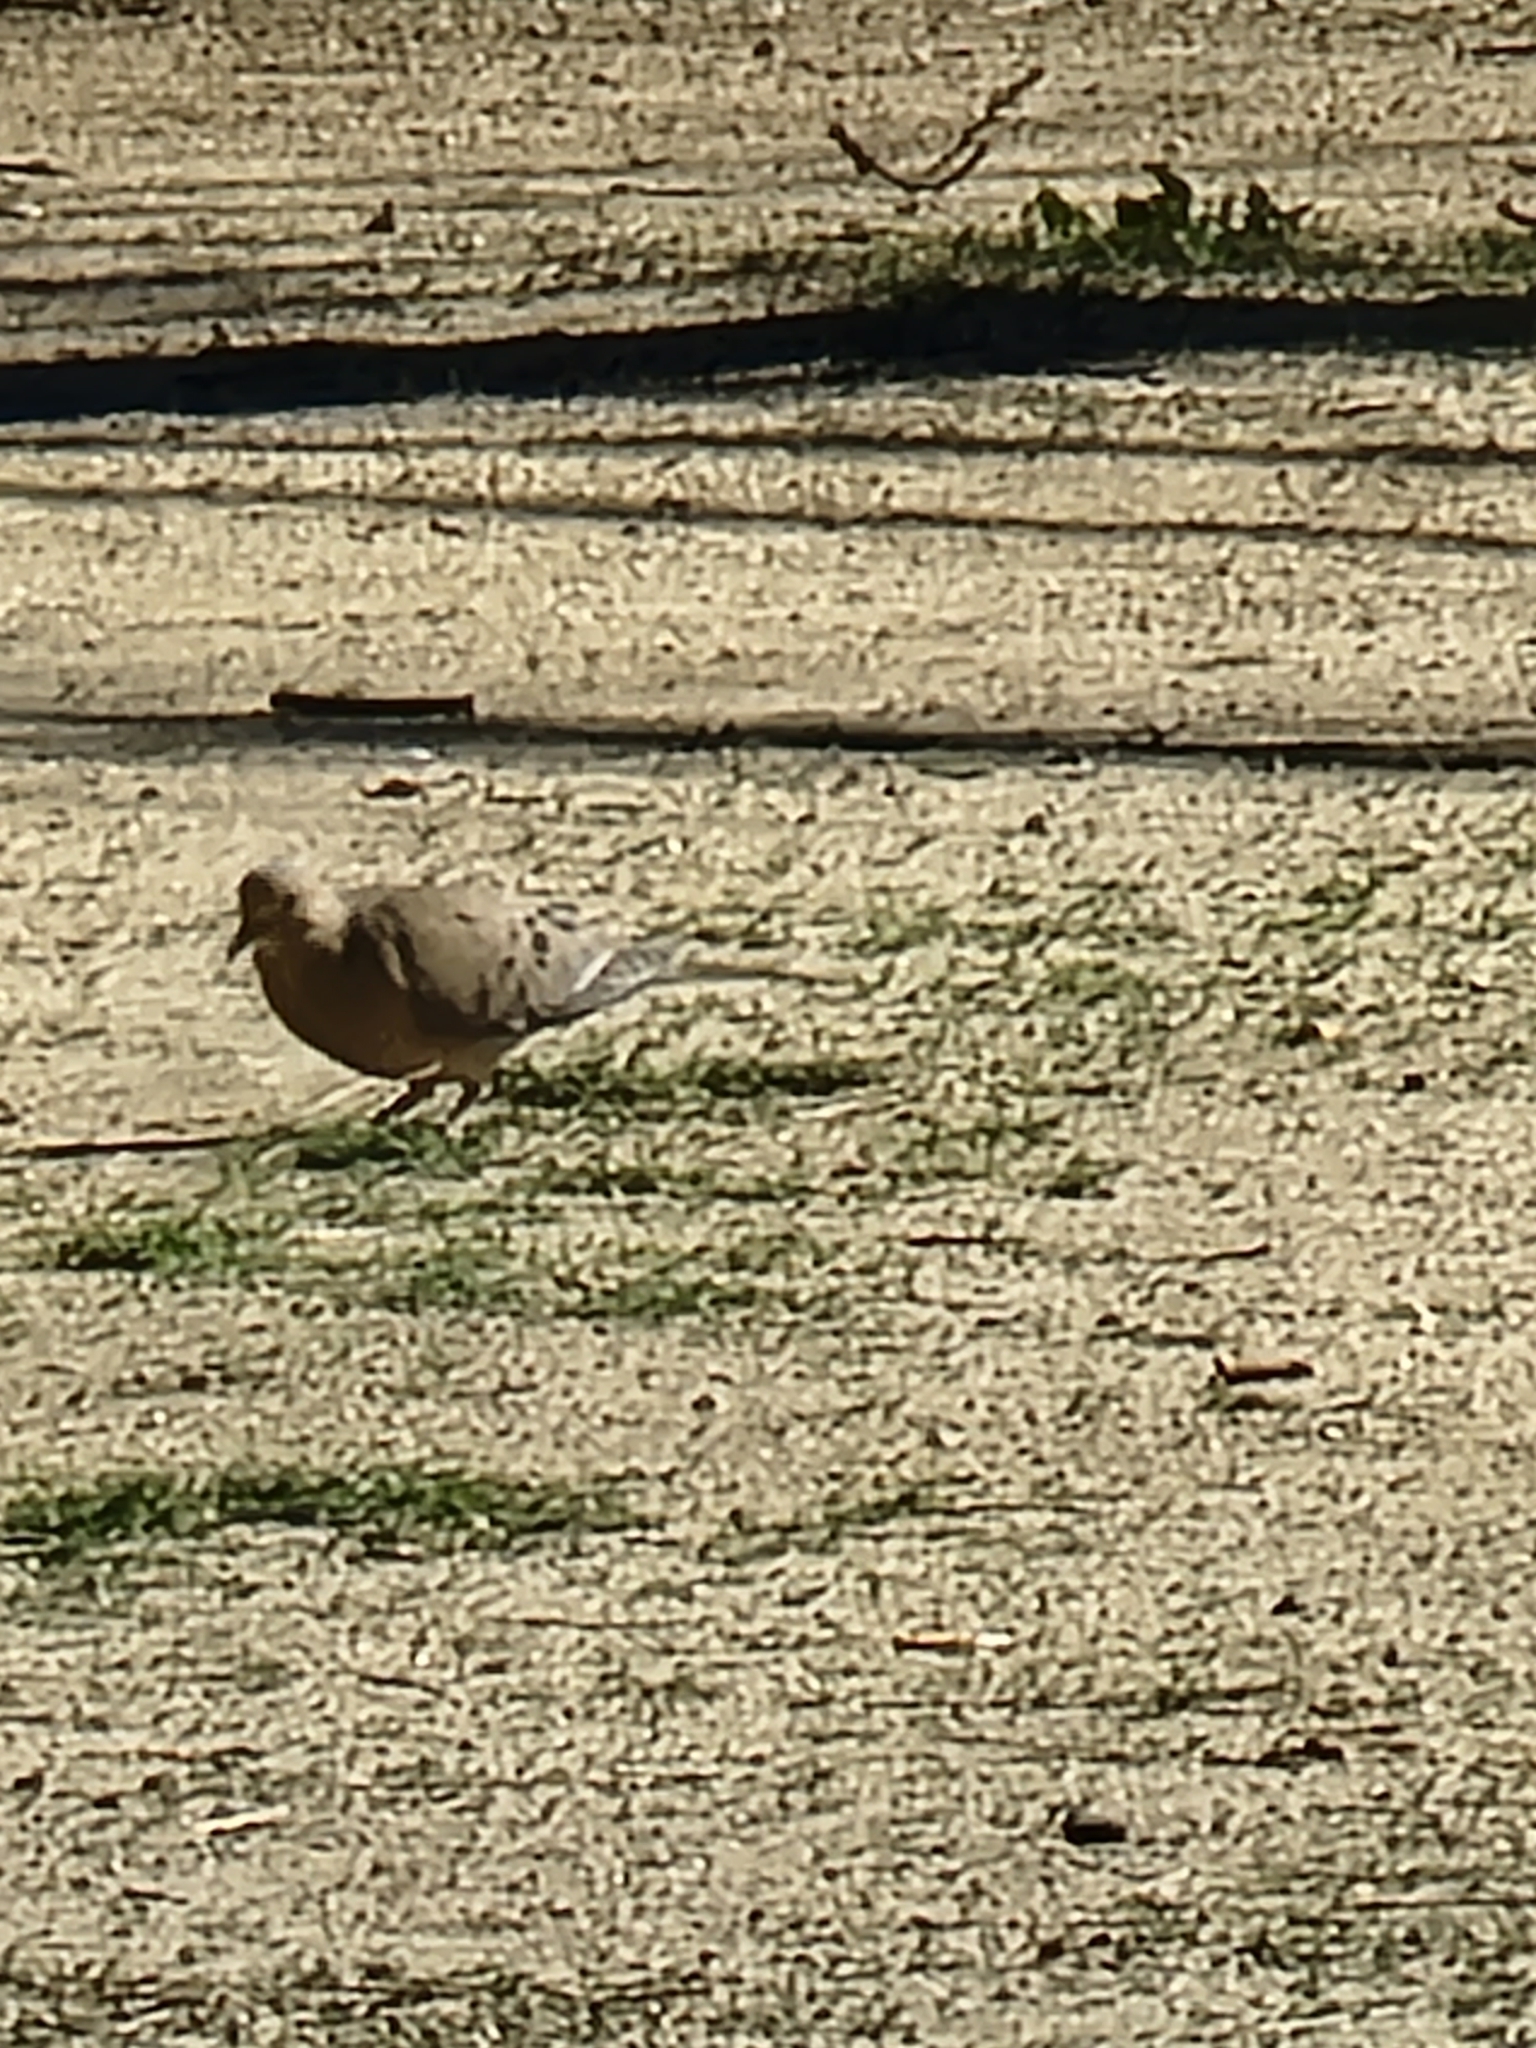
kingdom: Animalia
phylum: Chordata
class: Aves
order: Columbiformes
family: Columbidae
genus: Zenaida
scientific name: Zenaida macroura
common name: Mourning dove
